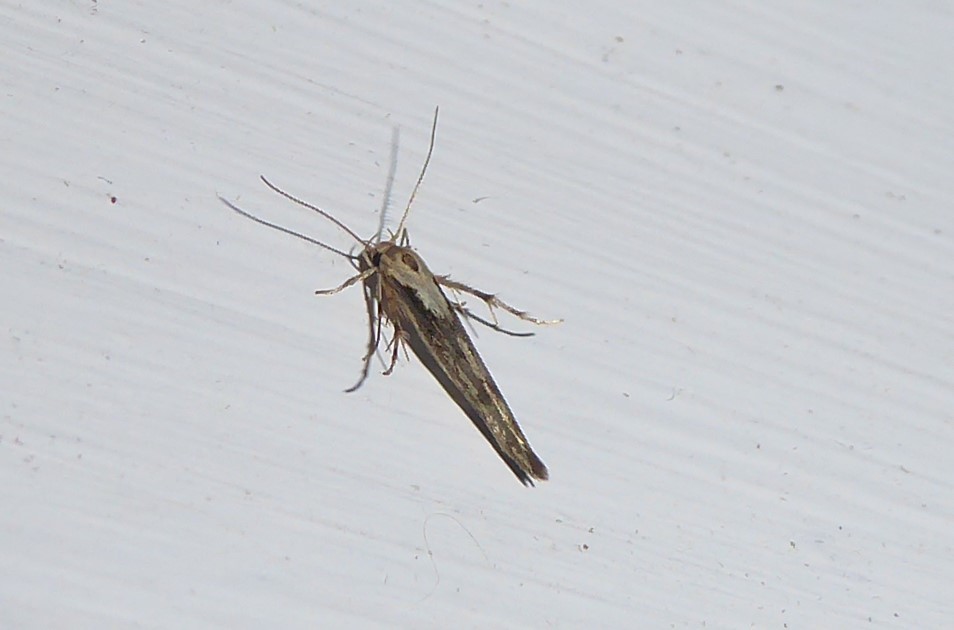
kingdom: Animalia
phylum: Arthropoda
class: Insecta
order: Lepidoptera
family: Stathmopodidae
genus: Stathmopoda
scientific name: Stathmopoda plumbiflua
